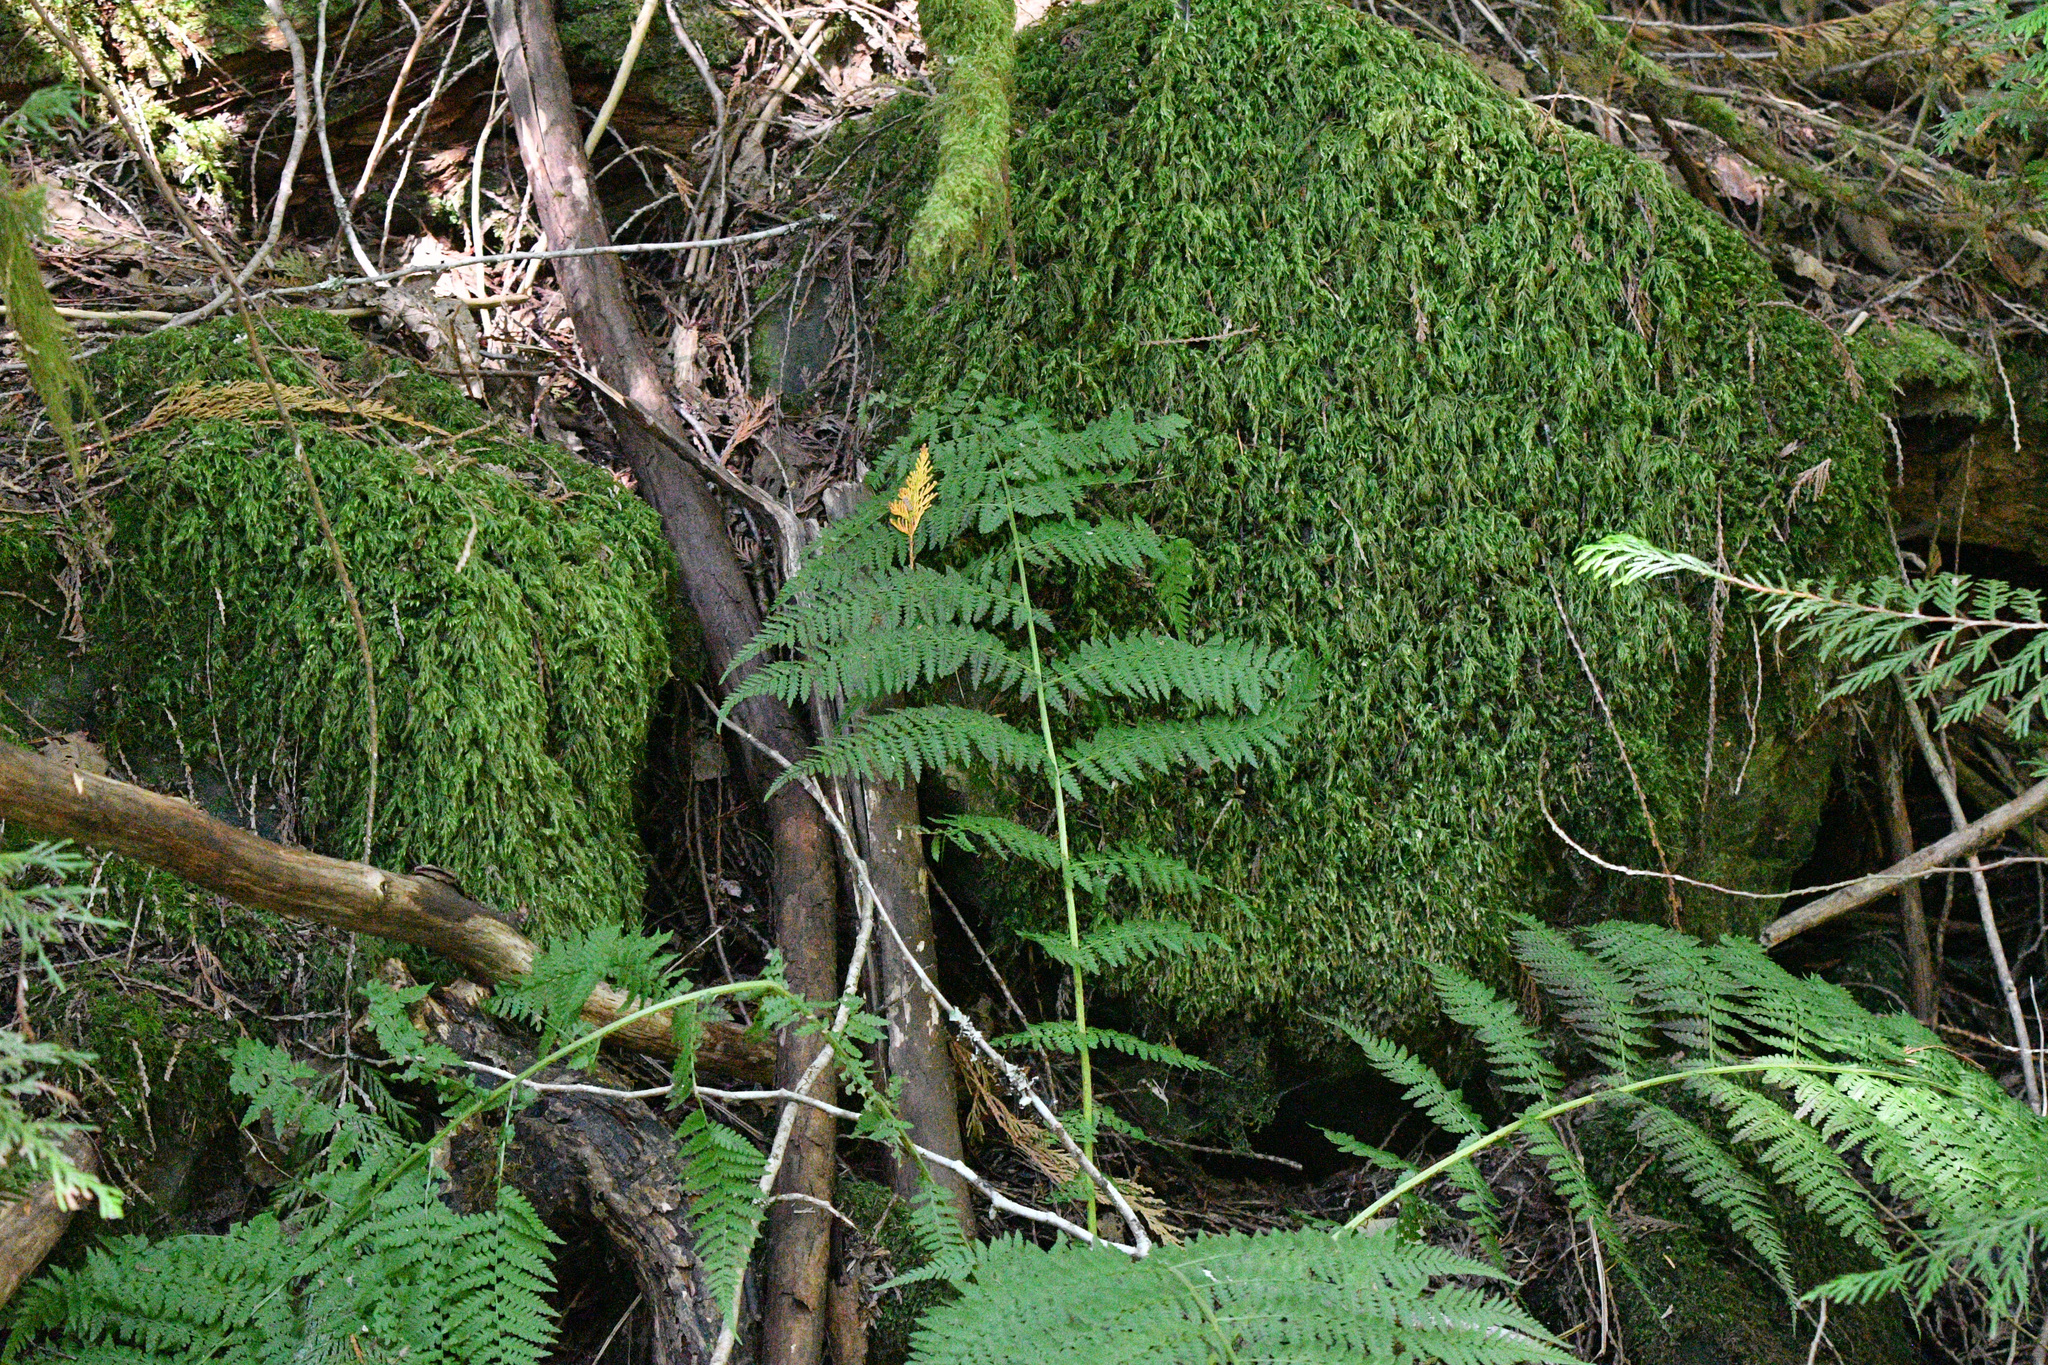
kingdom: Plantae
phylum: Tracheophyta
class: Polypodiopsida
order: Polypodiales
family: Athyriaceae
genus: Athyrium
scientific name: Athyrium filix-femina
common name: Lady fern
